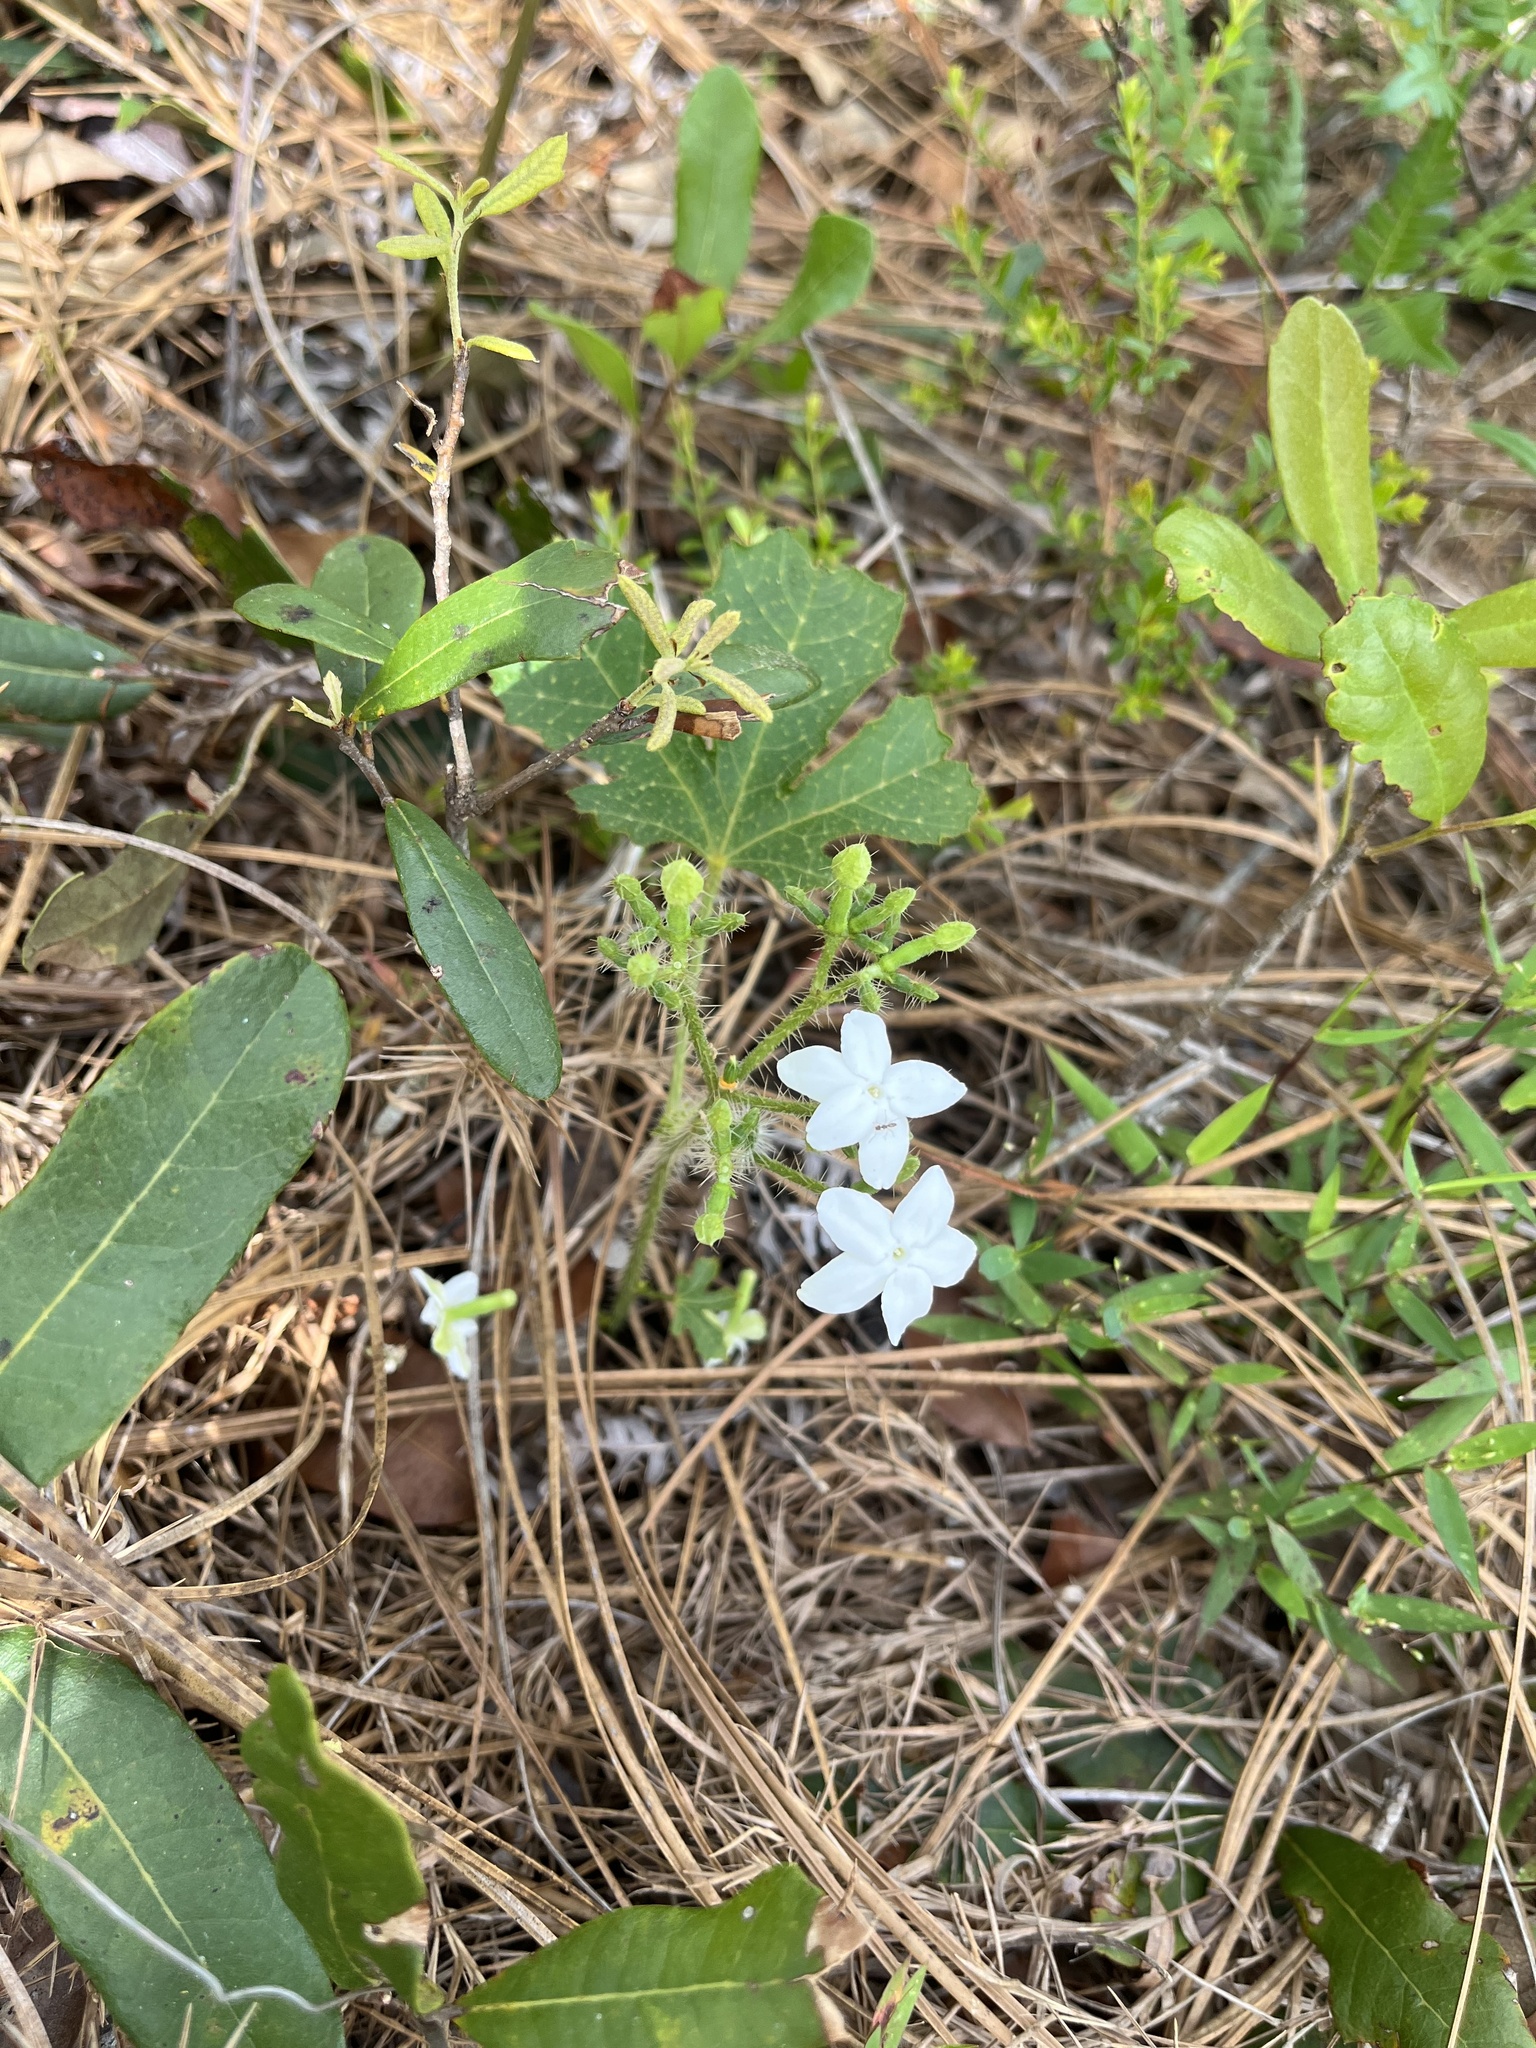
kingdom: Plantae
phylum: Tracheophyta
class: Magnoliopsida
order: Malpighiales
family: Euphorbiaceae
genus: Cnidoscolus
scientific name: Cnidoscolus stimulosus
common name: Bull-nettle
